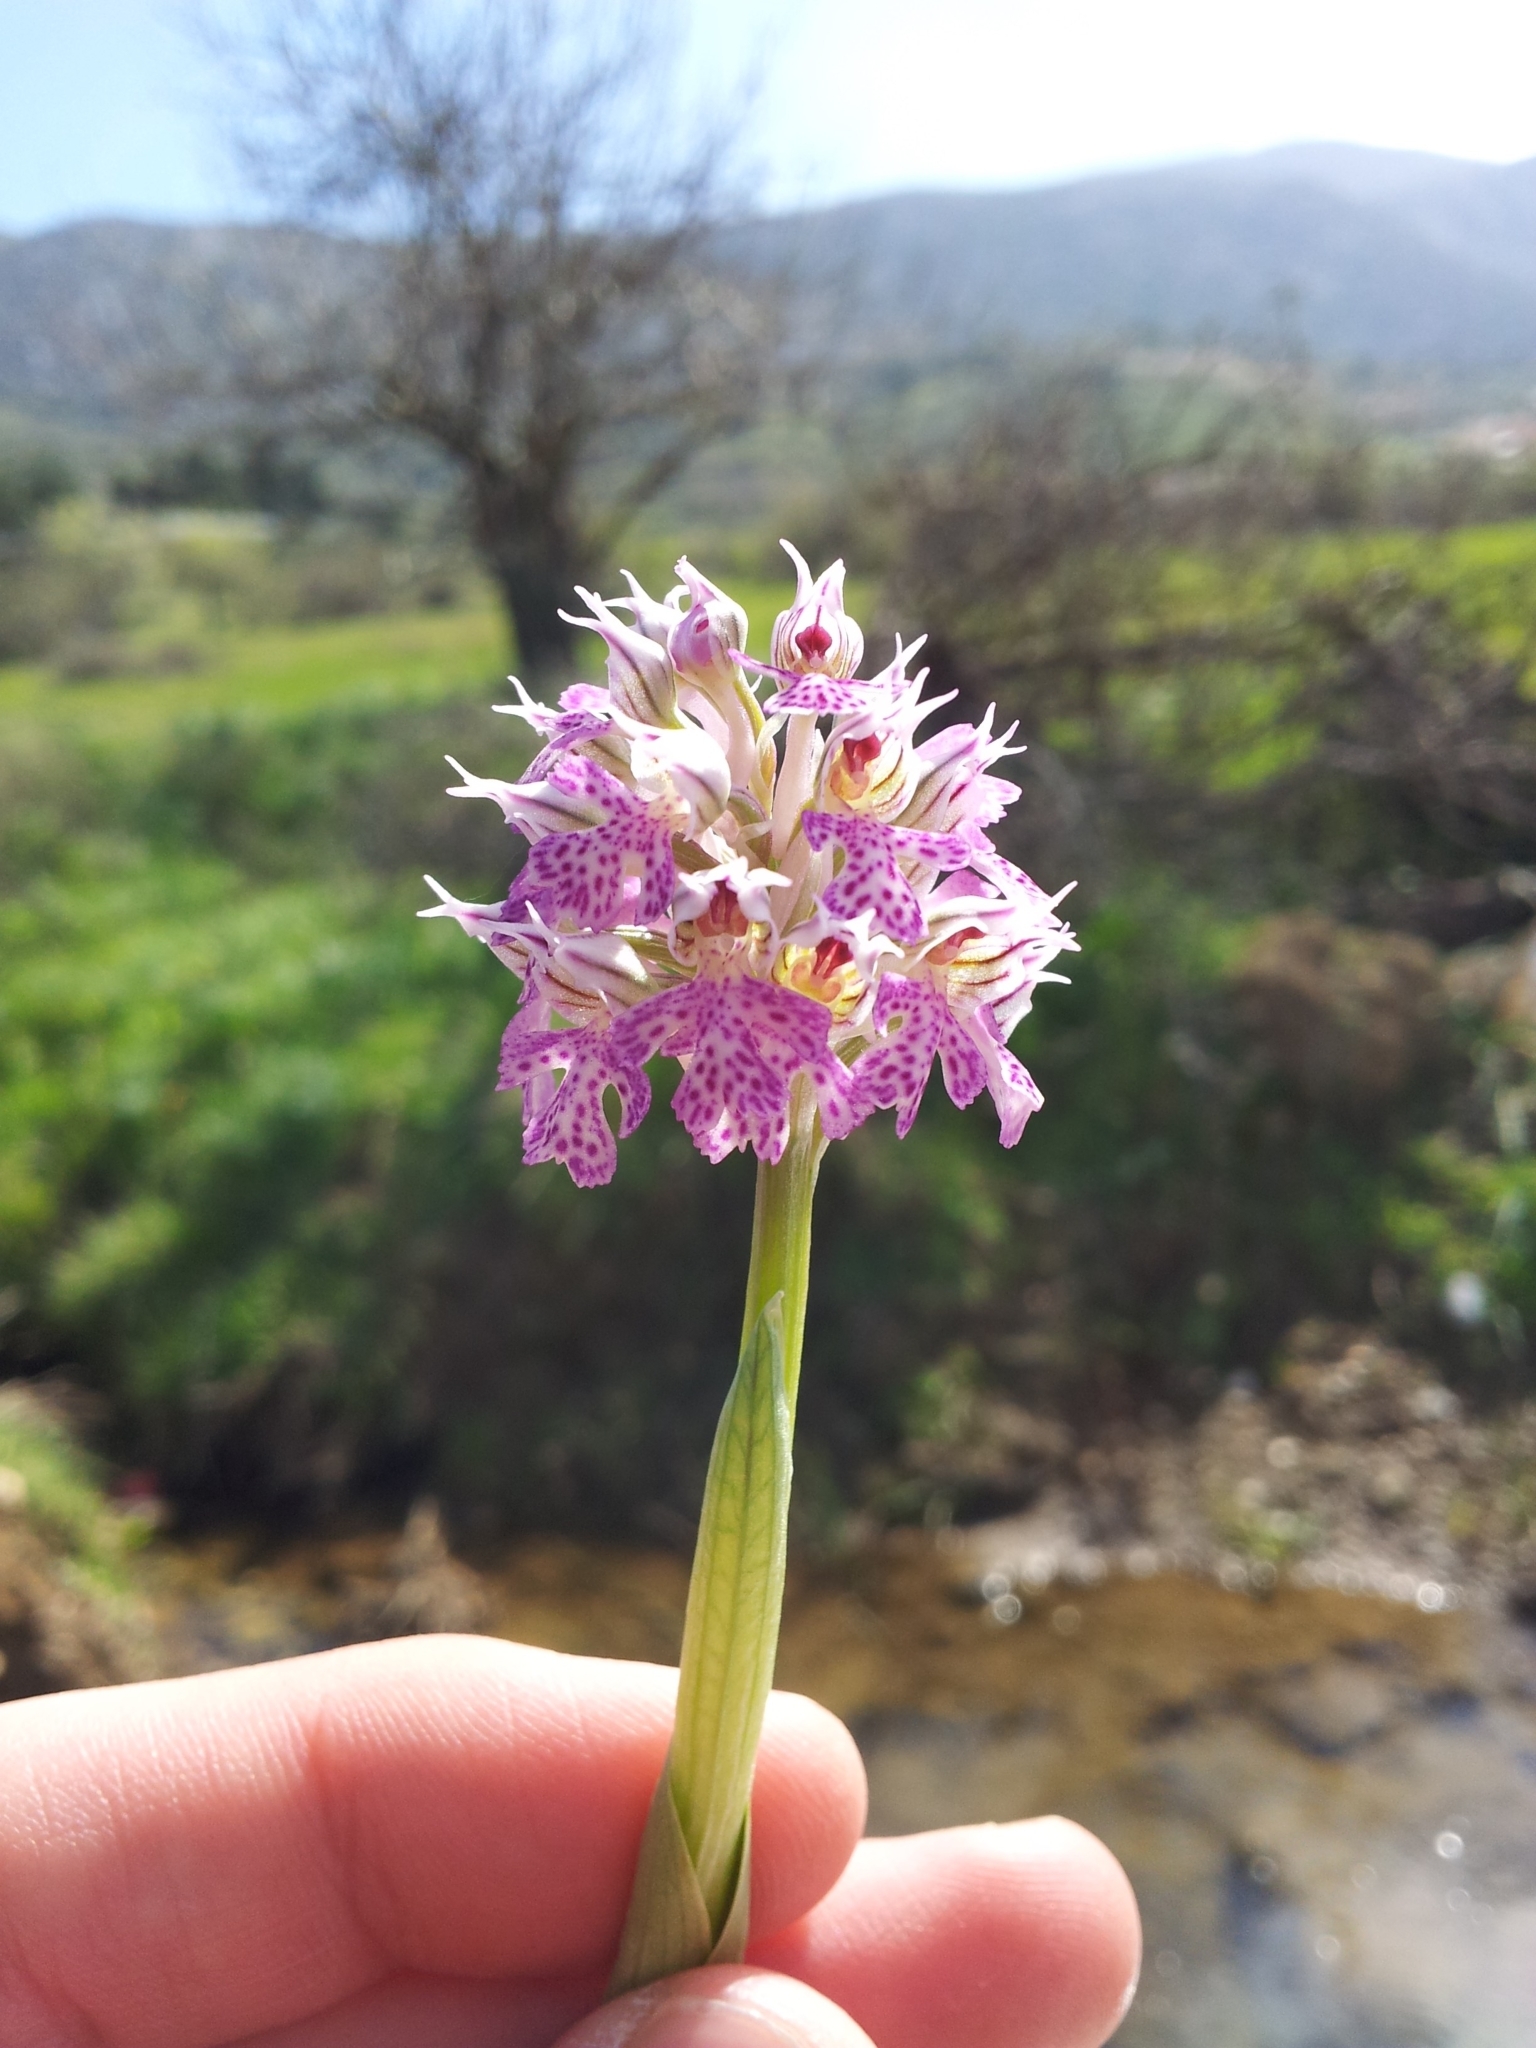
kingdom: Plantae
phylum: Tracheophyta
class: Liliopsida
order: Asparagales
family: Orchidaceae
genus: Neotinea
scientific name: Neotinea lactea
